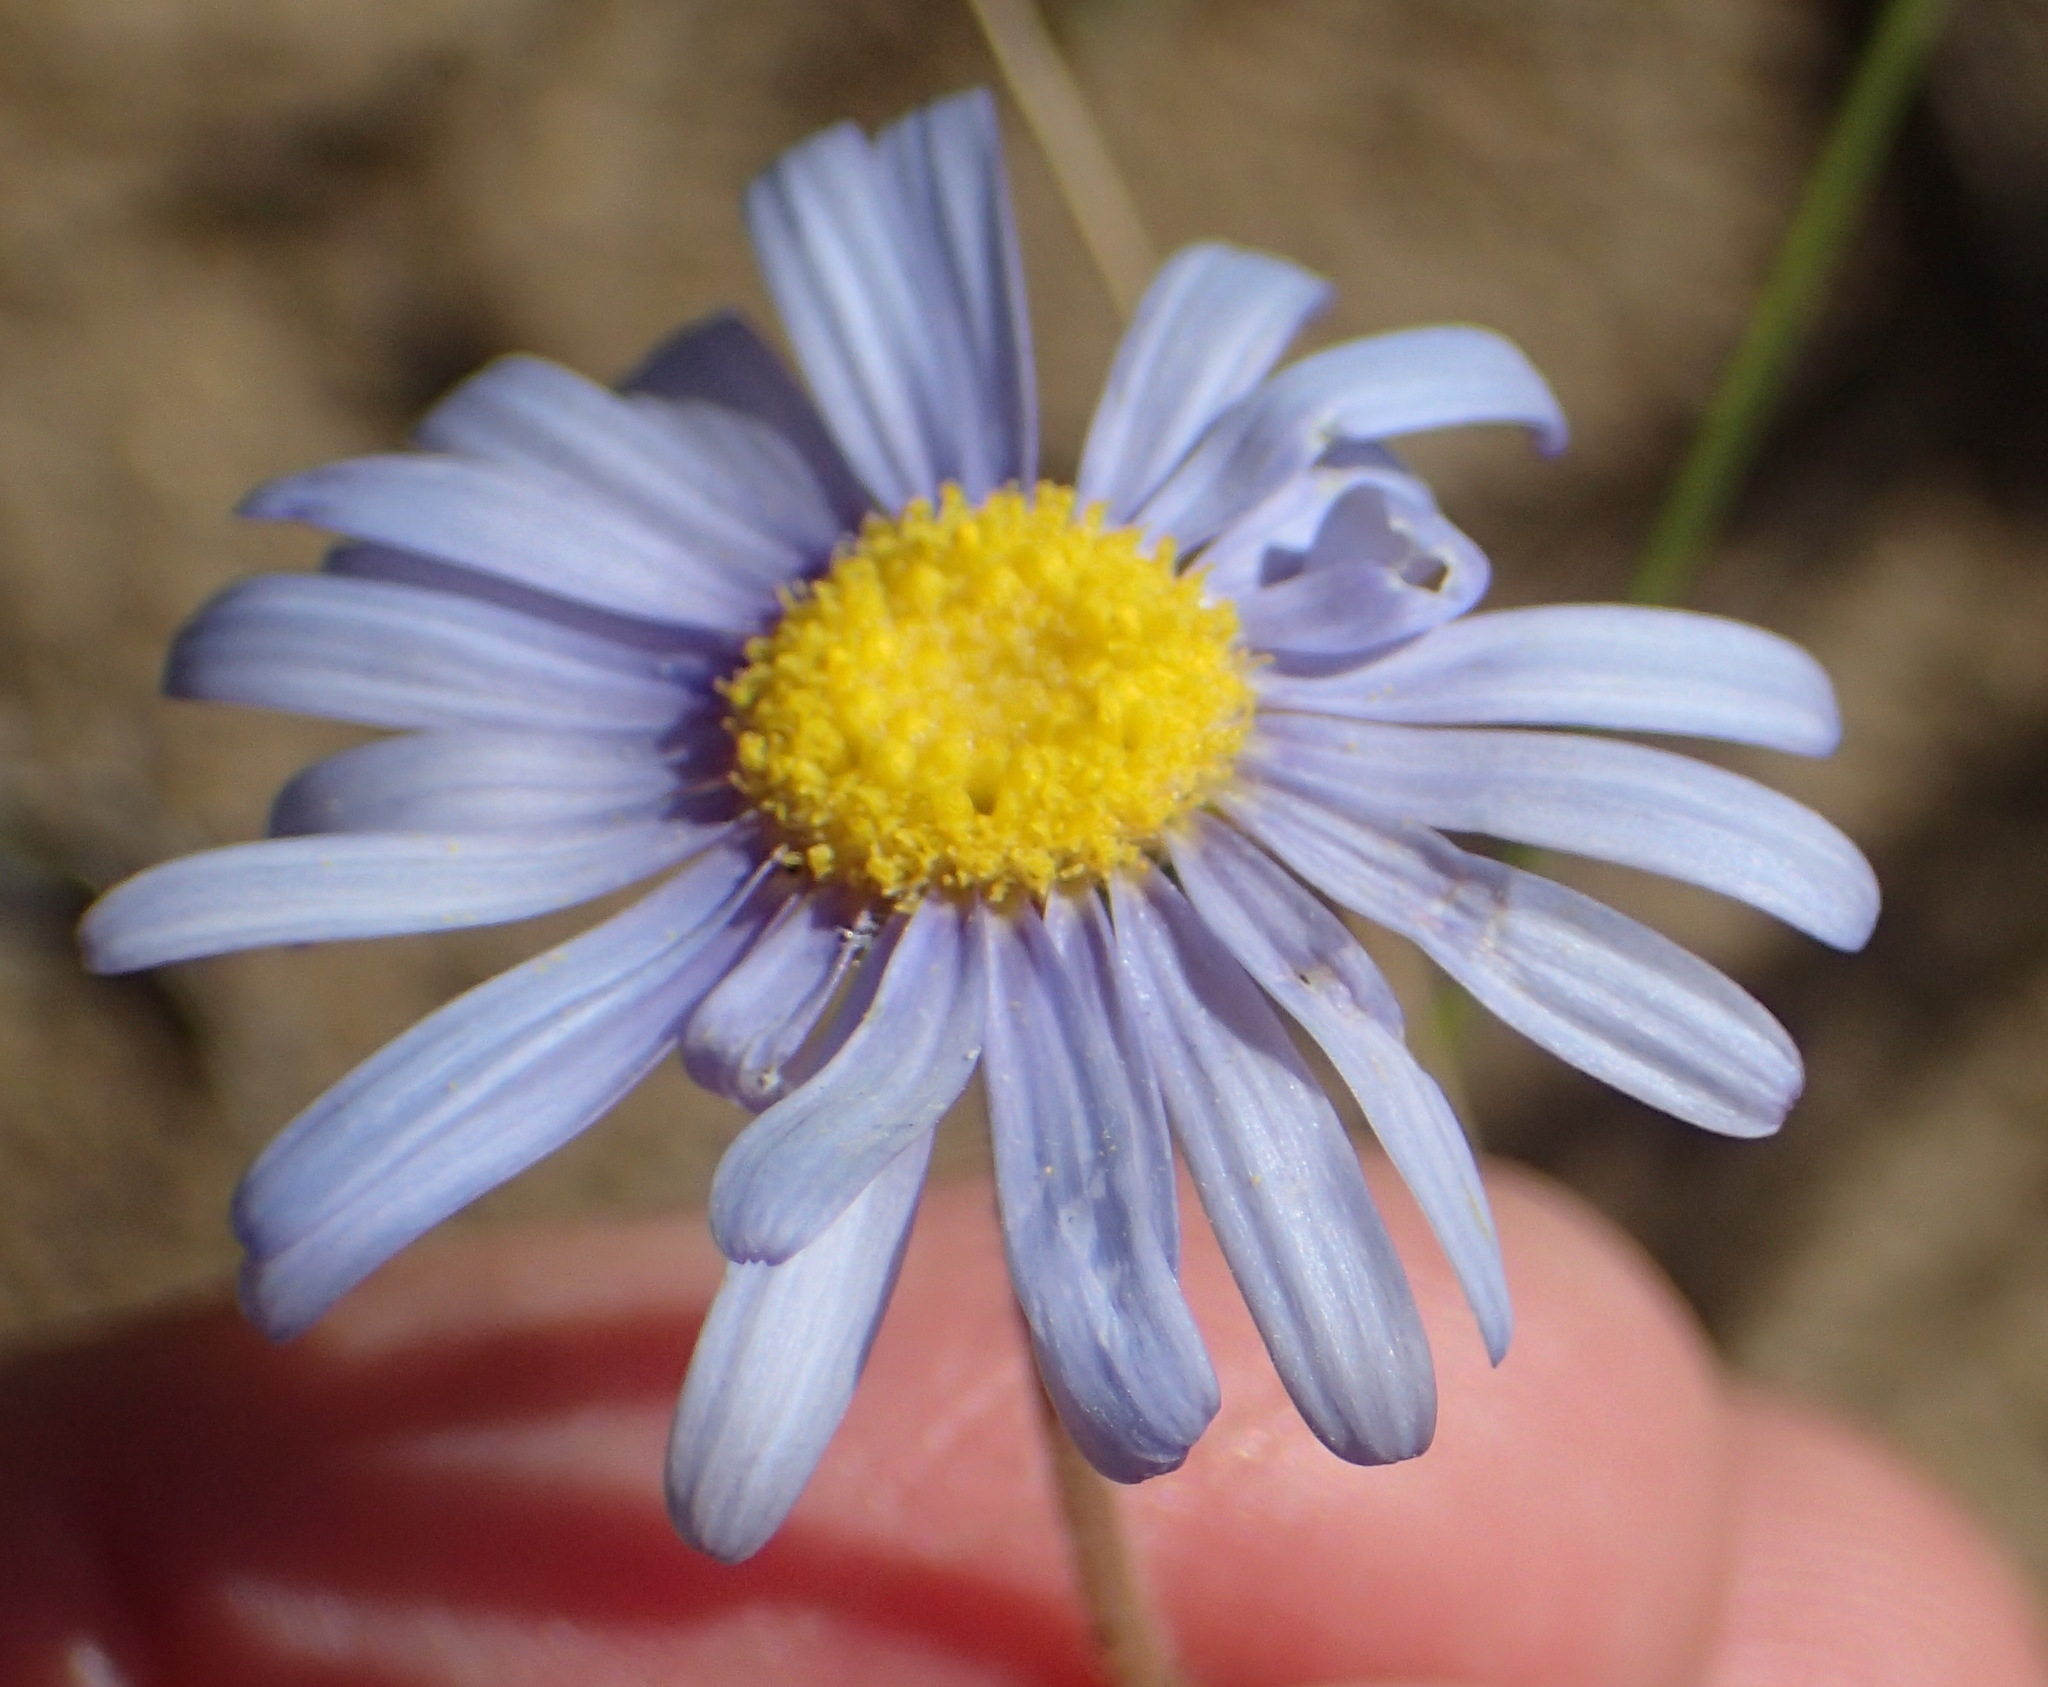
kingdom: Plantae
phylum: Tracheophyta
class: Magnoliopsida
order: Asterales
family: Asteraceae
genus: Felicia
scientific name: Felicia amoena
